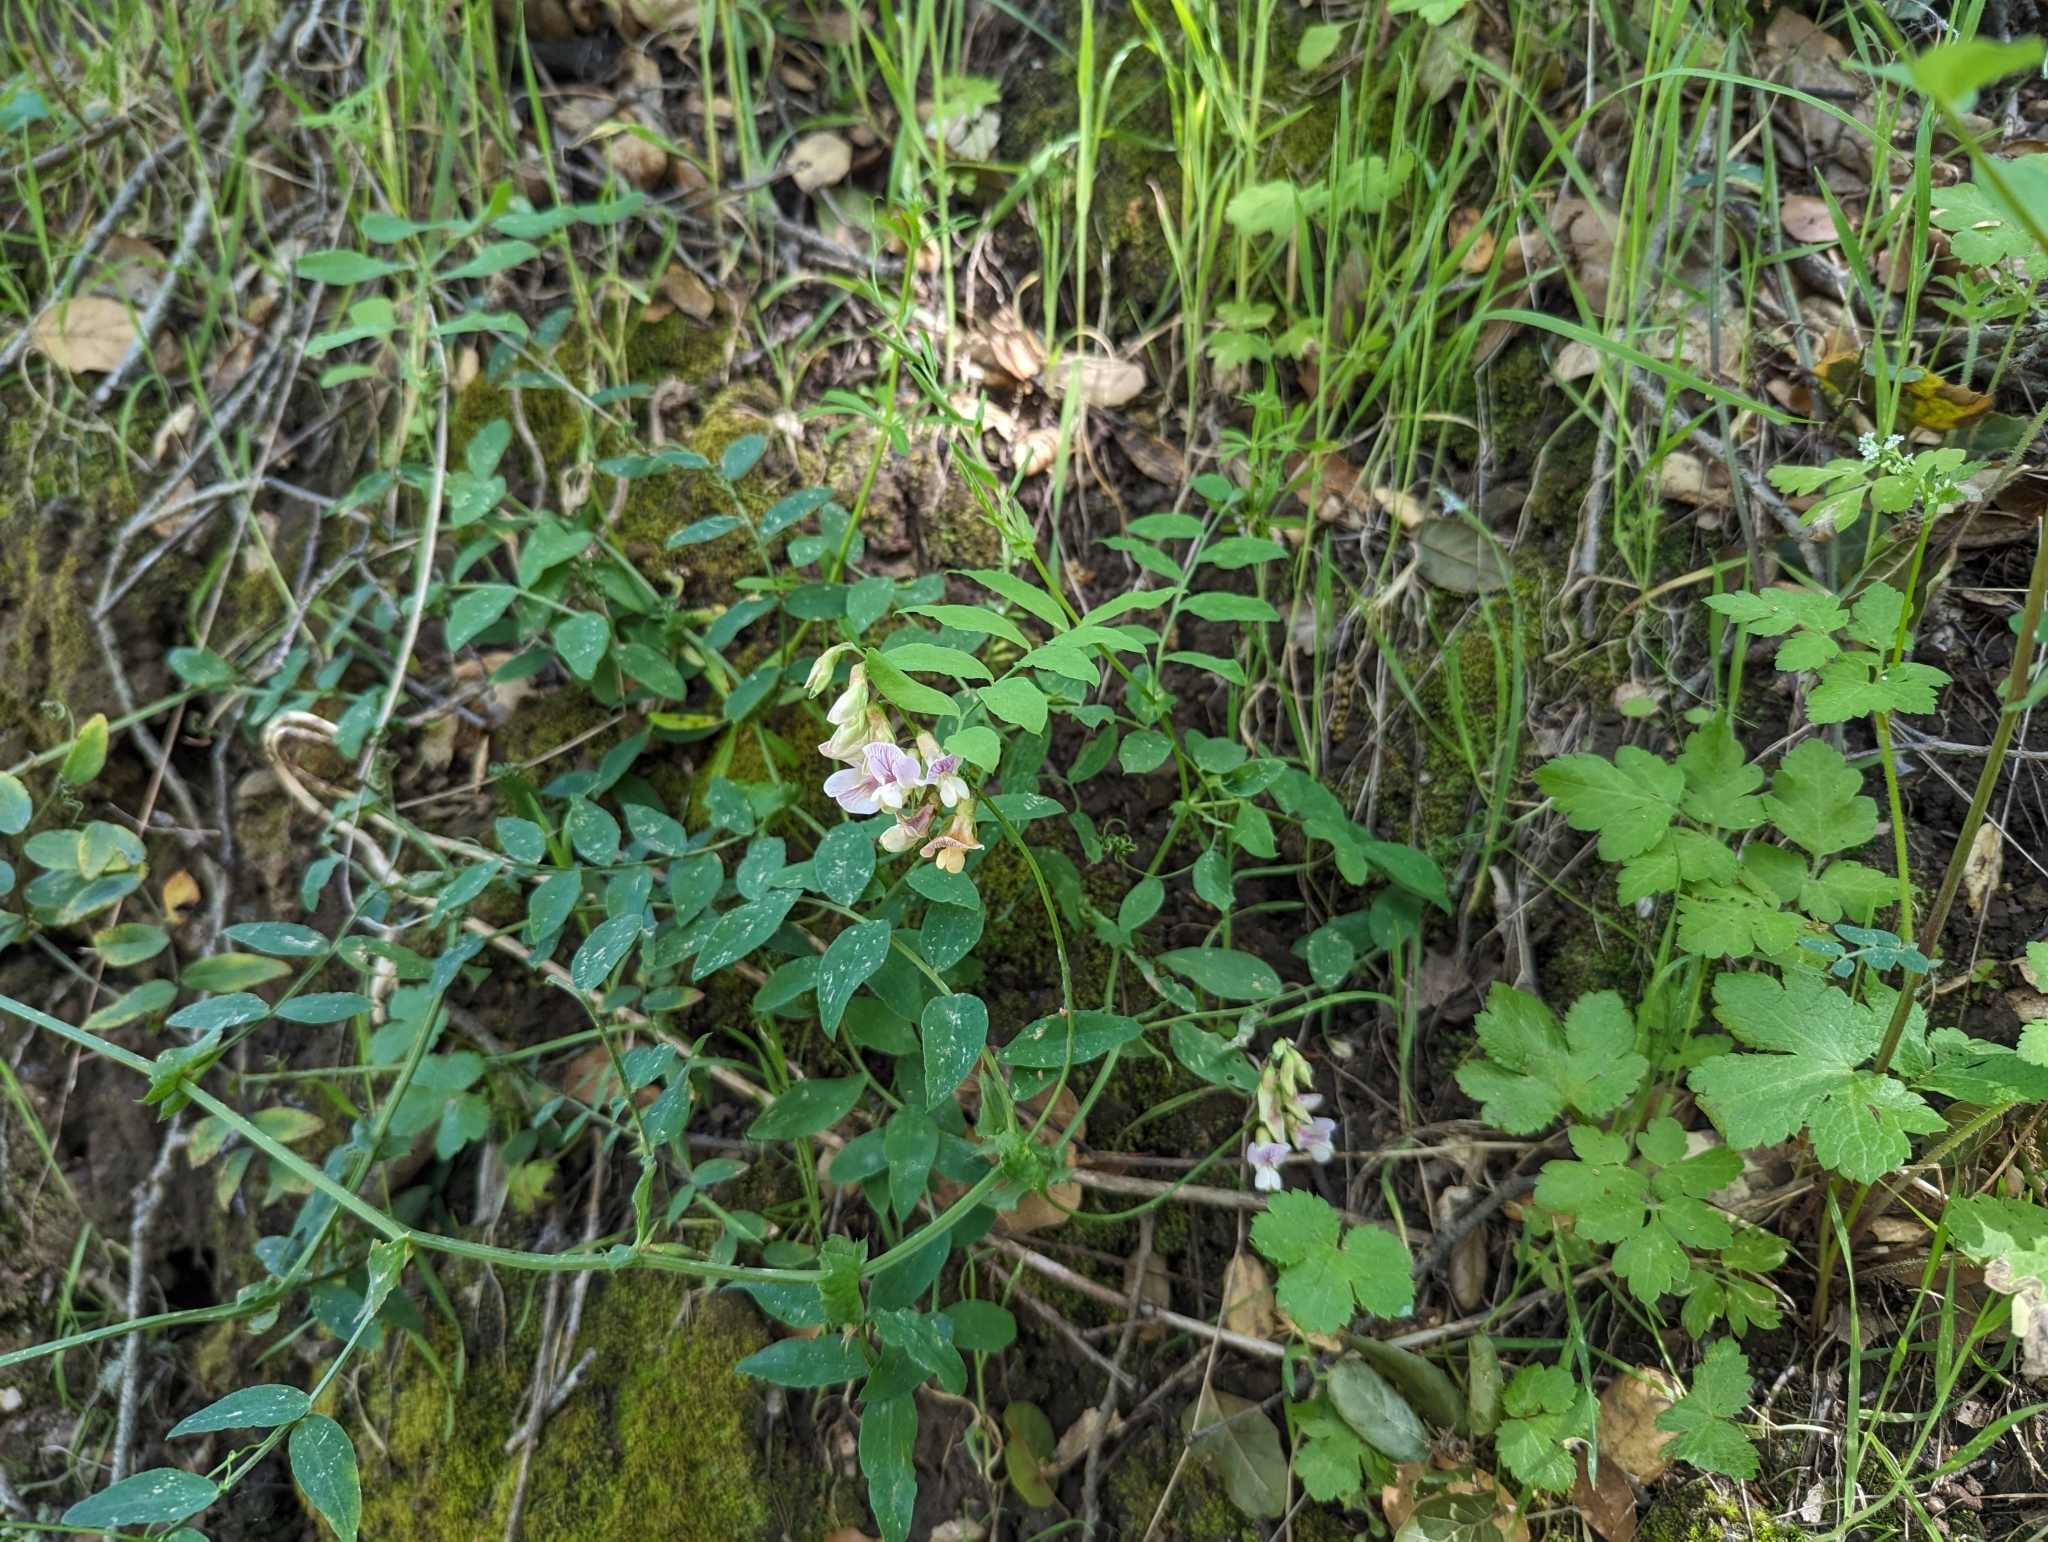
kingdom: Plantae
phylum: Tracheophyta
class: Magnoliopsida
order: Fabales
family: Fabaceae
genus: Lathyrus
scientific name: Lathyrus vestitus
